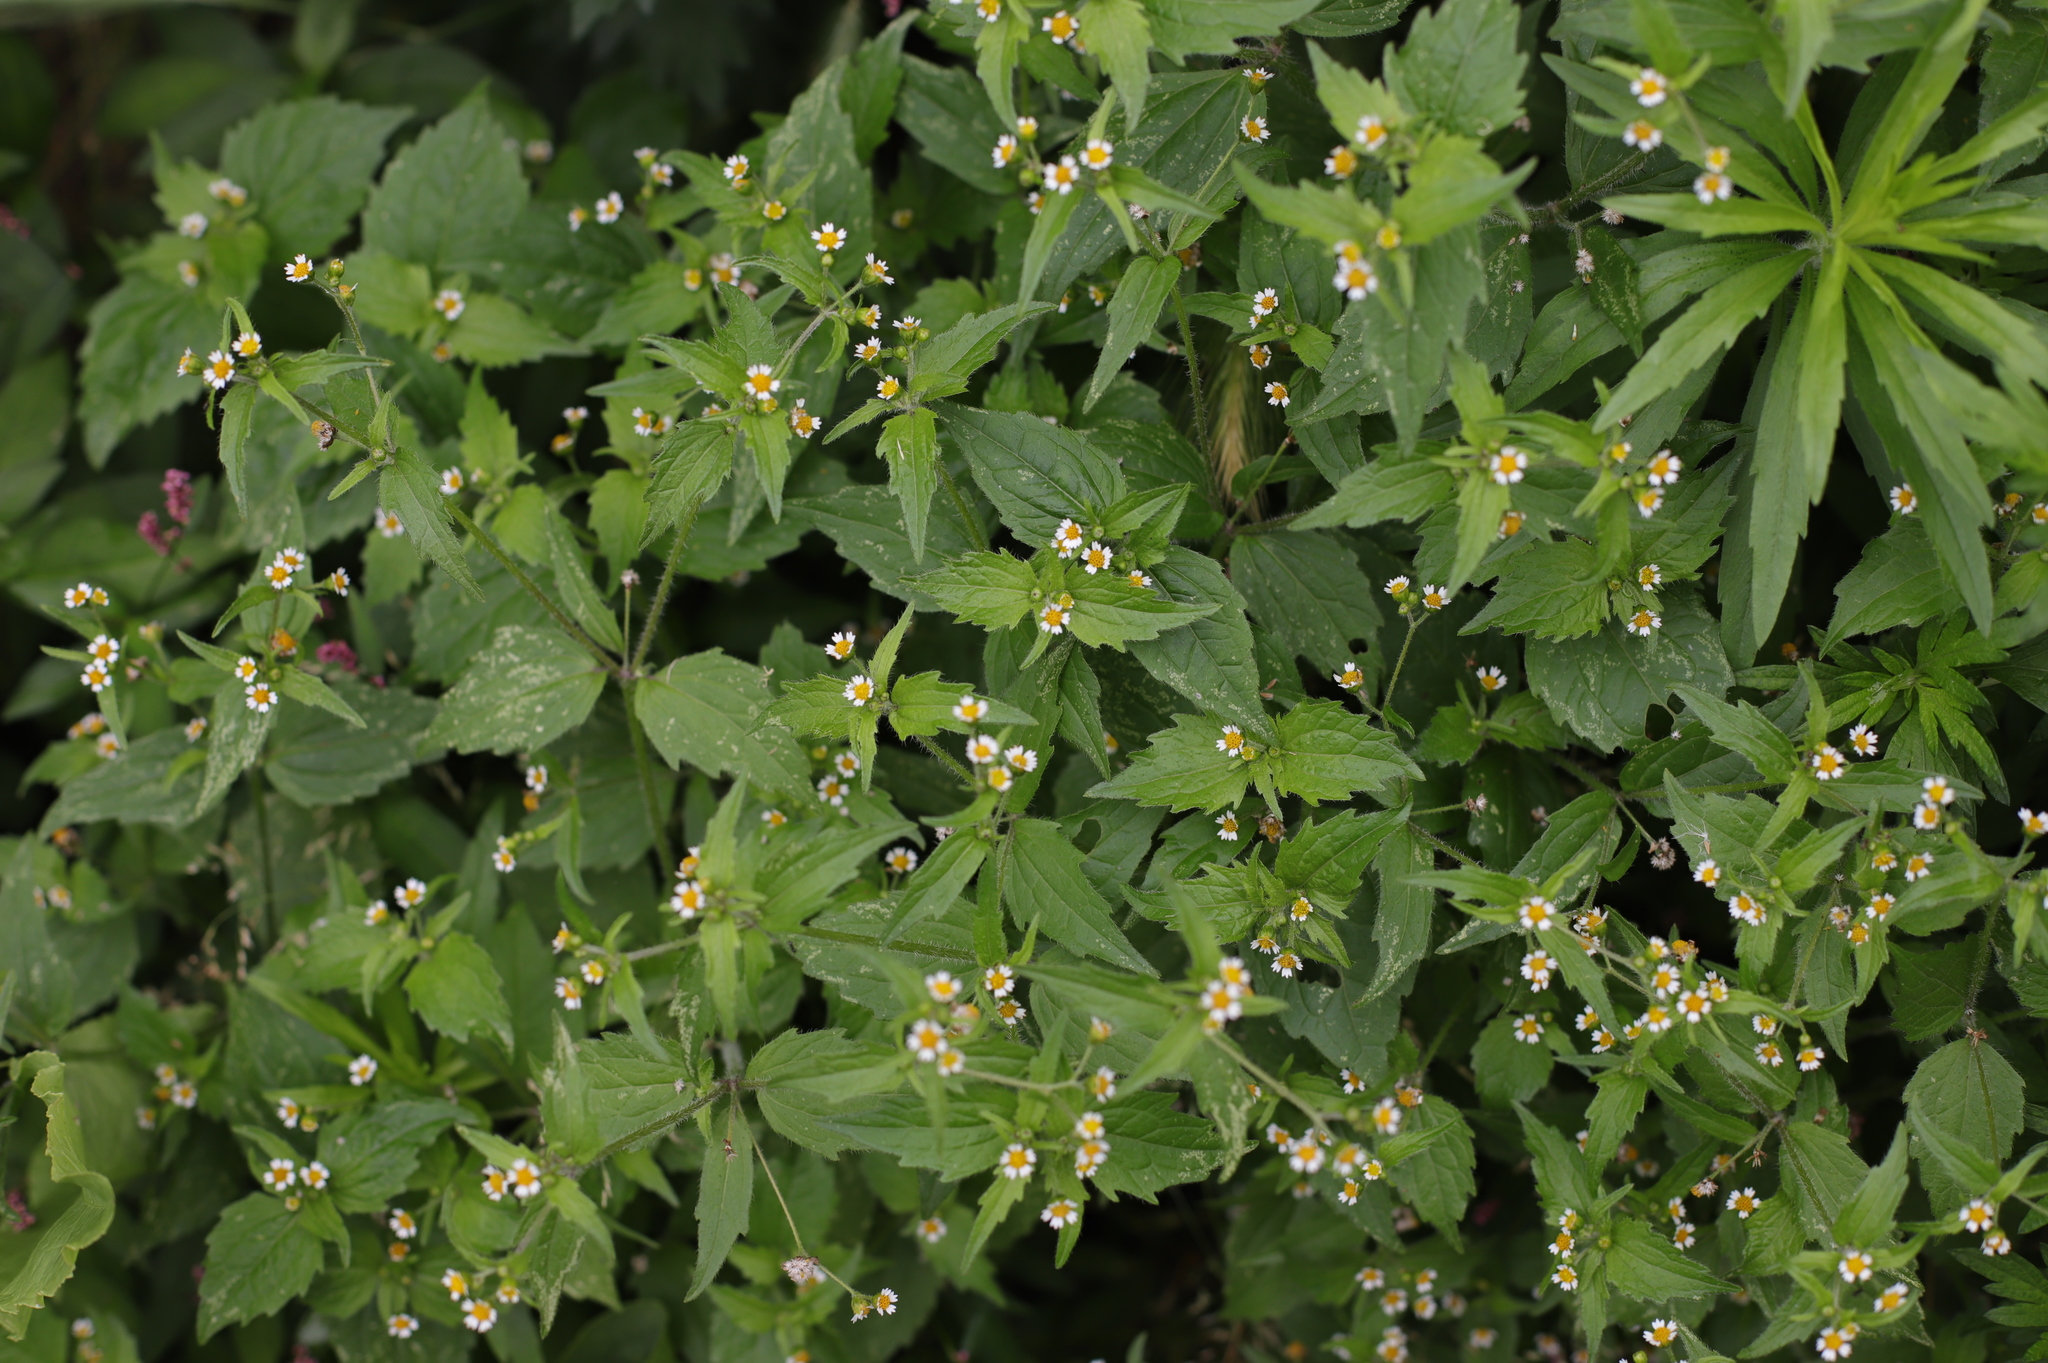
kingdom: Plantae
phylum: Tracheophyta
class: Magnoliopsida
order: Asterales
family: Asteraceae
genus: Galinsoga
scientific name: Galinsoga quadriradiata
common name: Shaggy soldier
